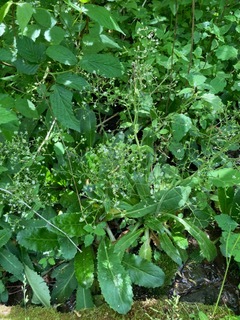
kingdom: Plantae
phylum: Tracheophyta
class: Magnoliopsida
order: Saxifragales
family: Saxifragaceae
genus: Micranthes
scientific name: Micranthes micranthidifolia
